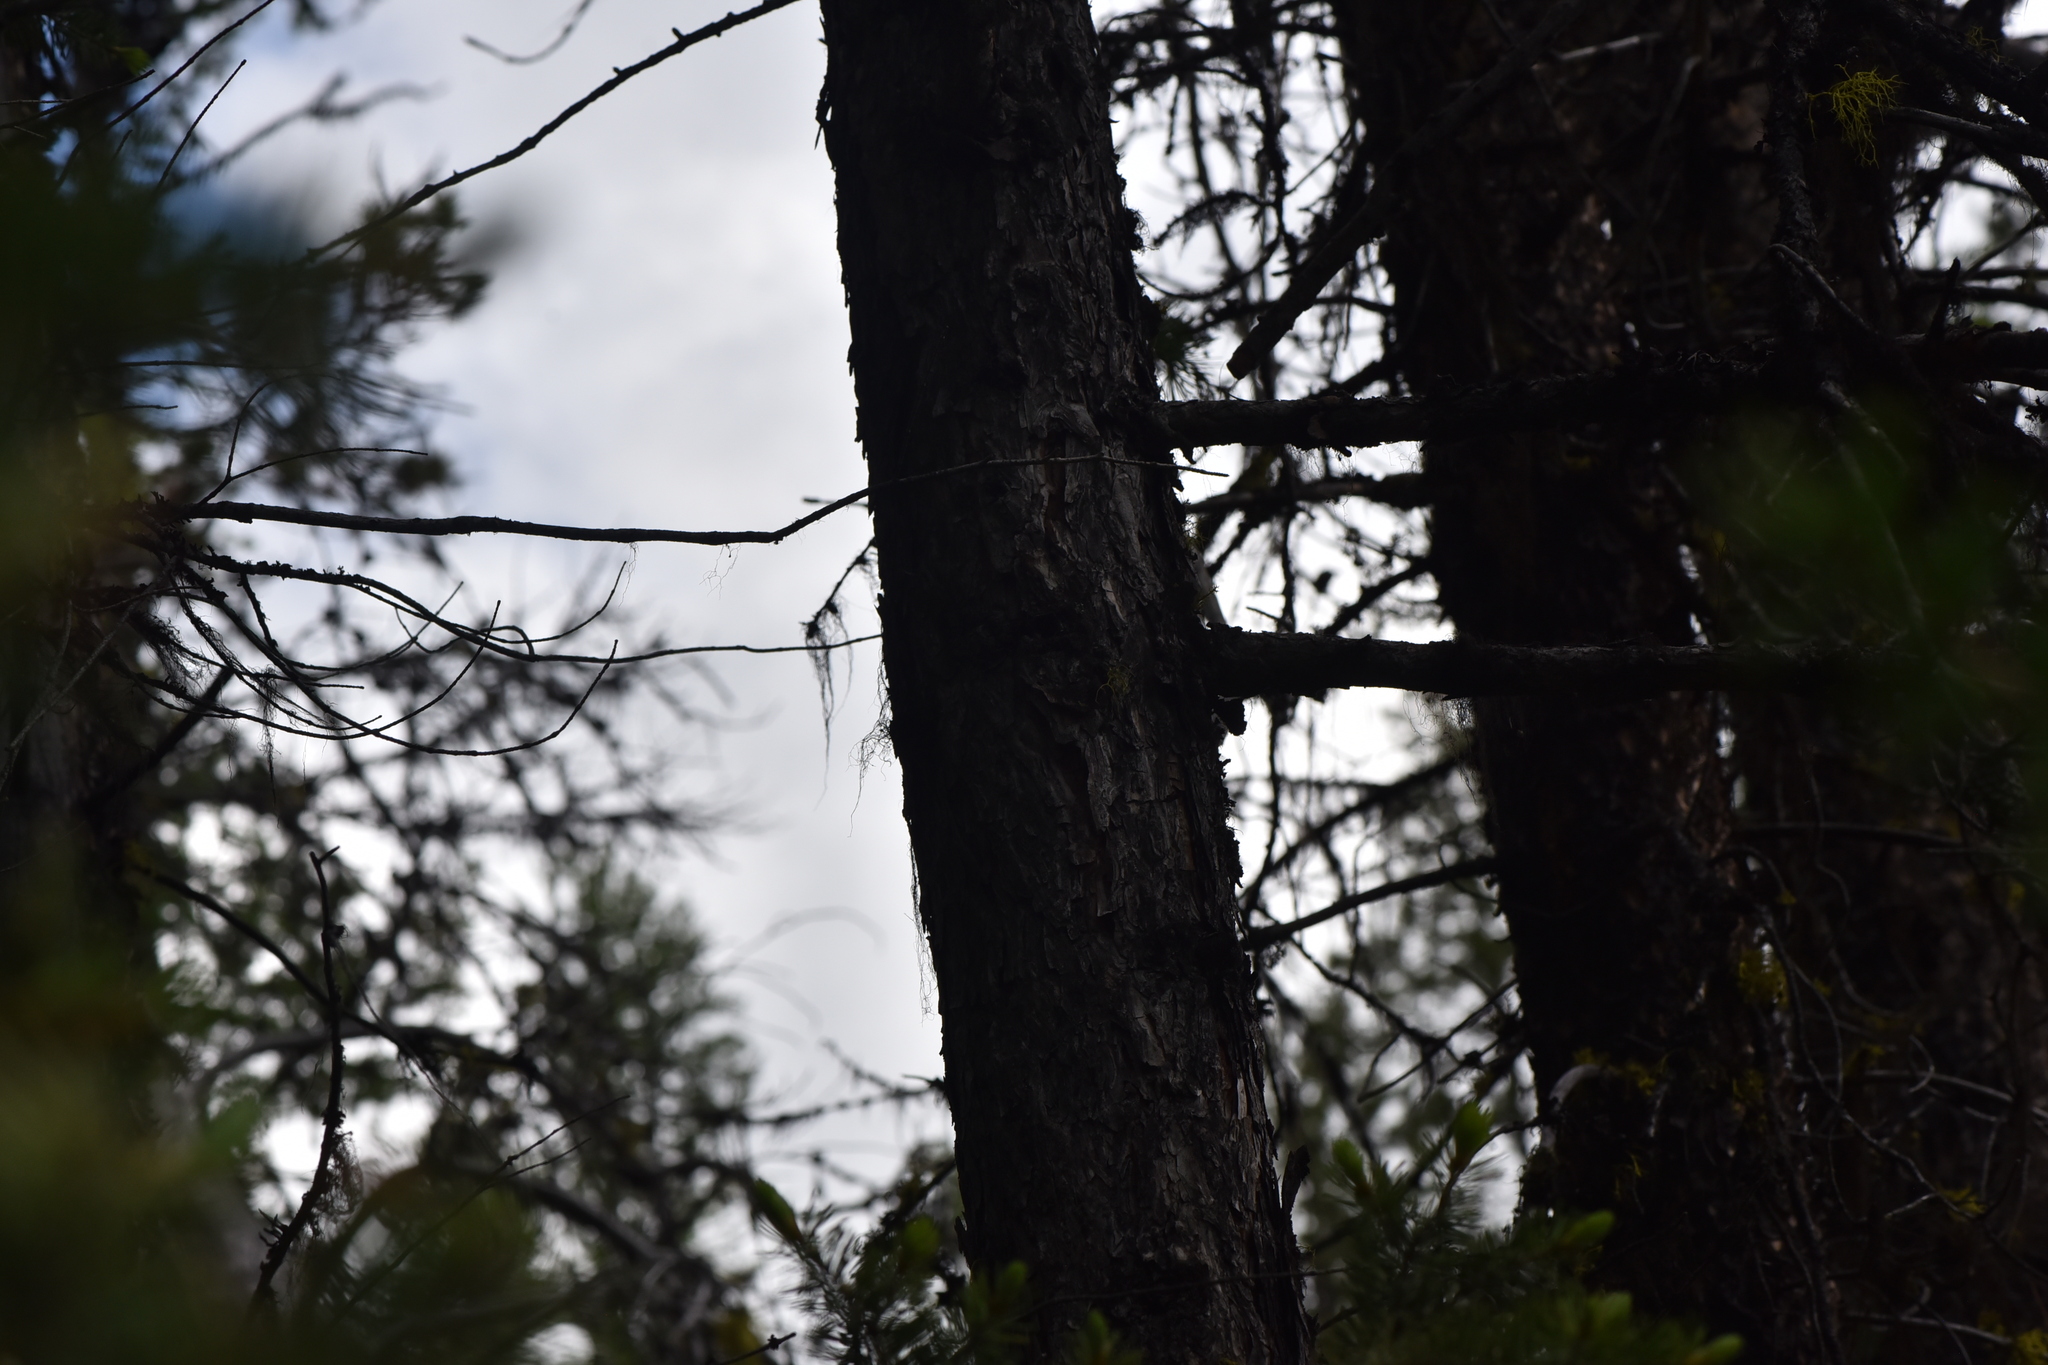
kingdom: Plantae
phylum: Tracheophyta
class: Pinopsida
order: Pinales
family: Pinaceae
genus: Larix
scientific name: Larix occidentalis
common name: Western larch
